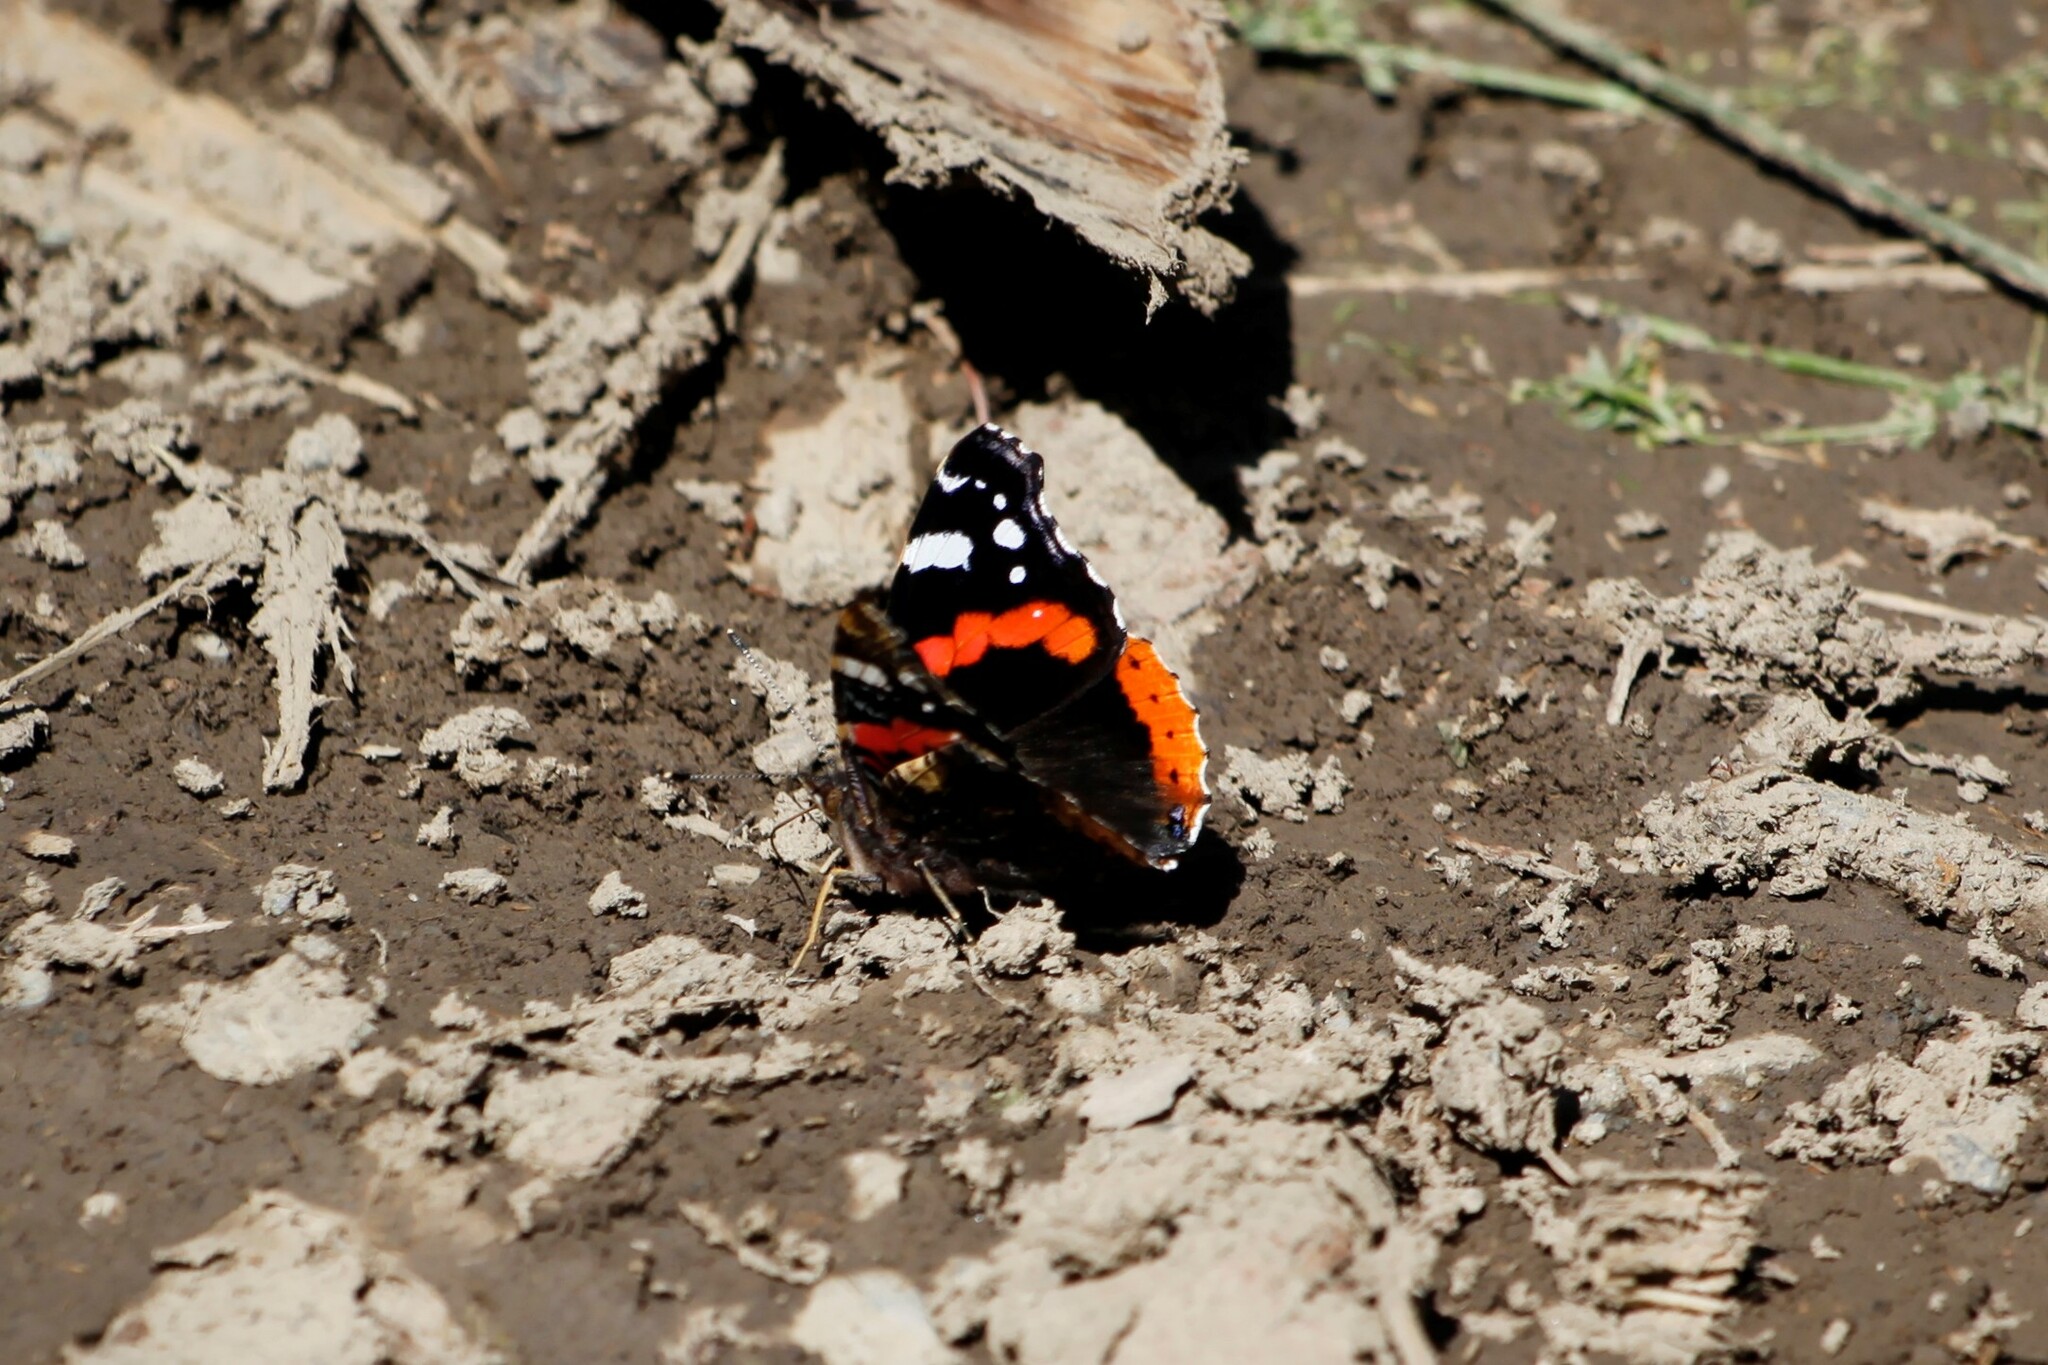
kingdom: Animalia
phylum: Arthropoda
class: Insecta
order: Lepidoptera
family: Nymphalidae
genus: Vanessa
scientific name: Vanessa atalanta
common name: Red admiral
